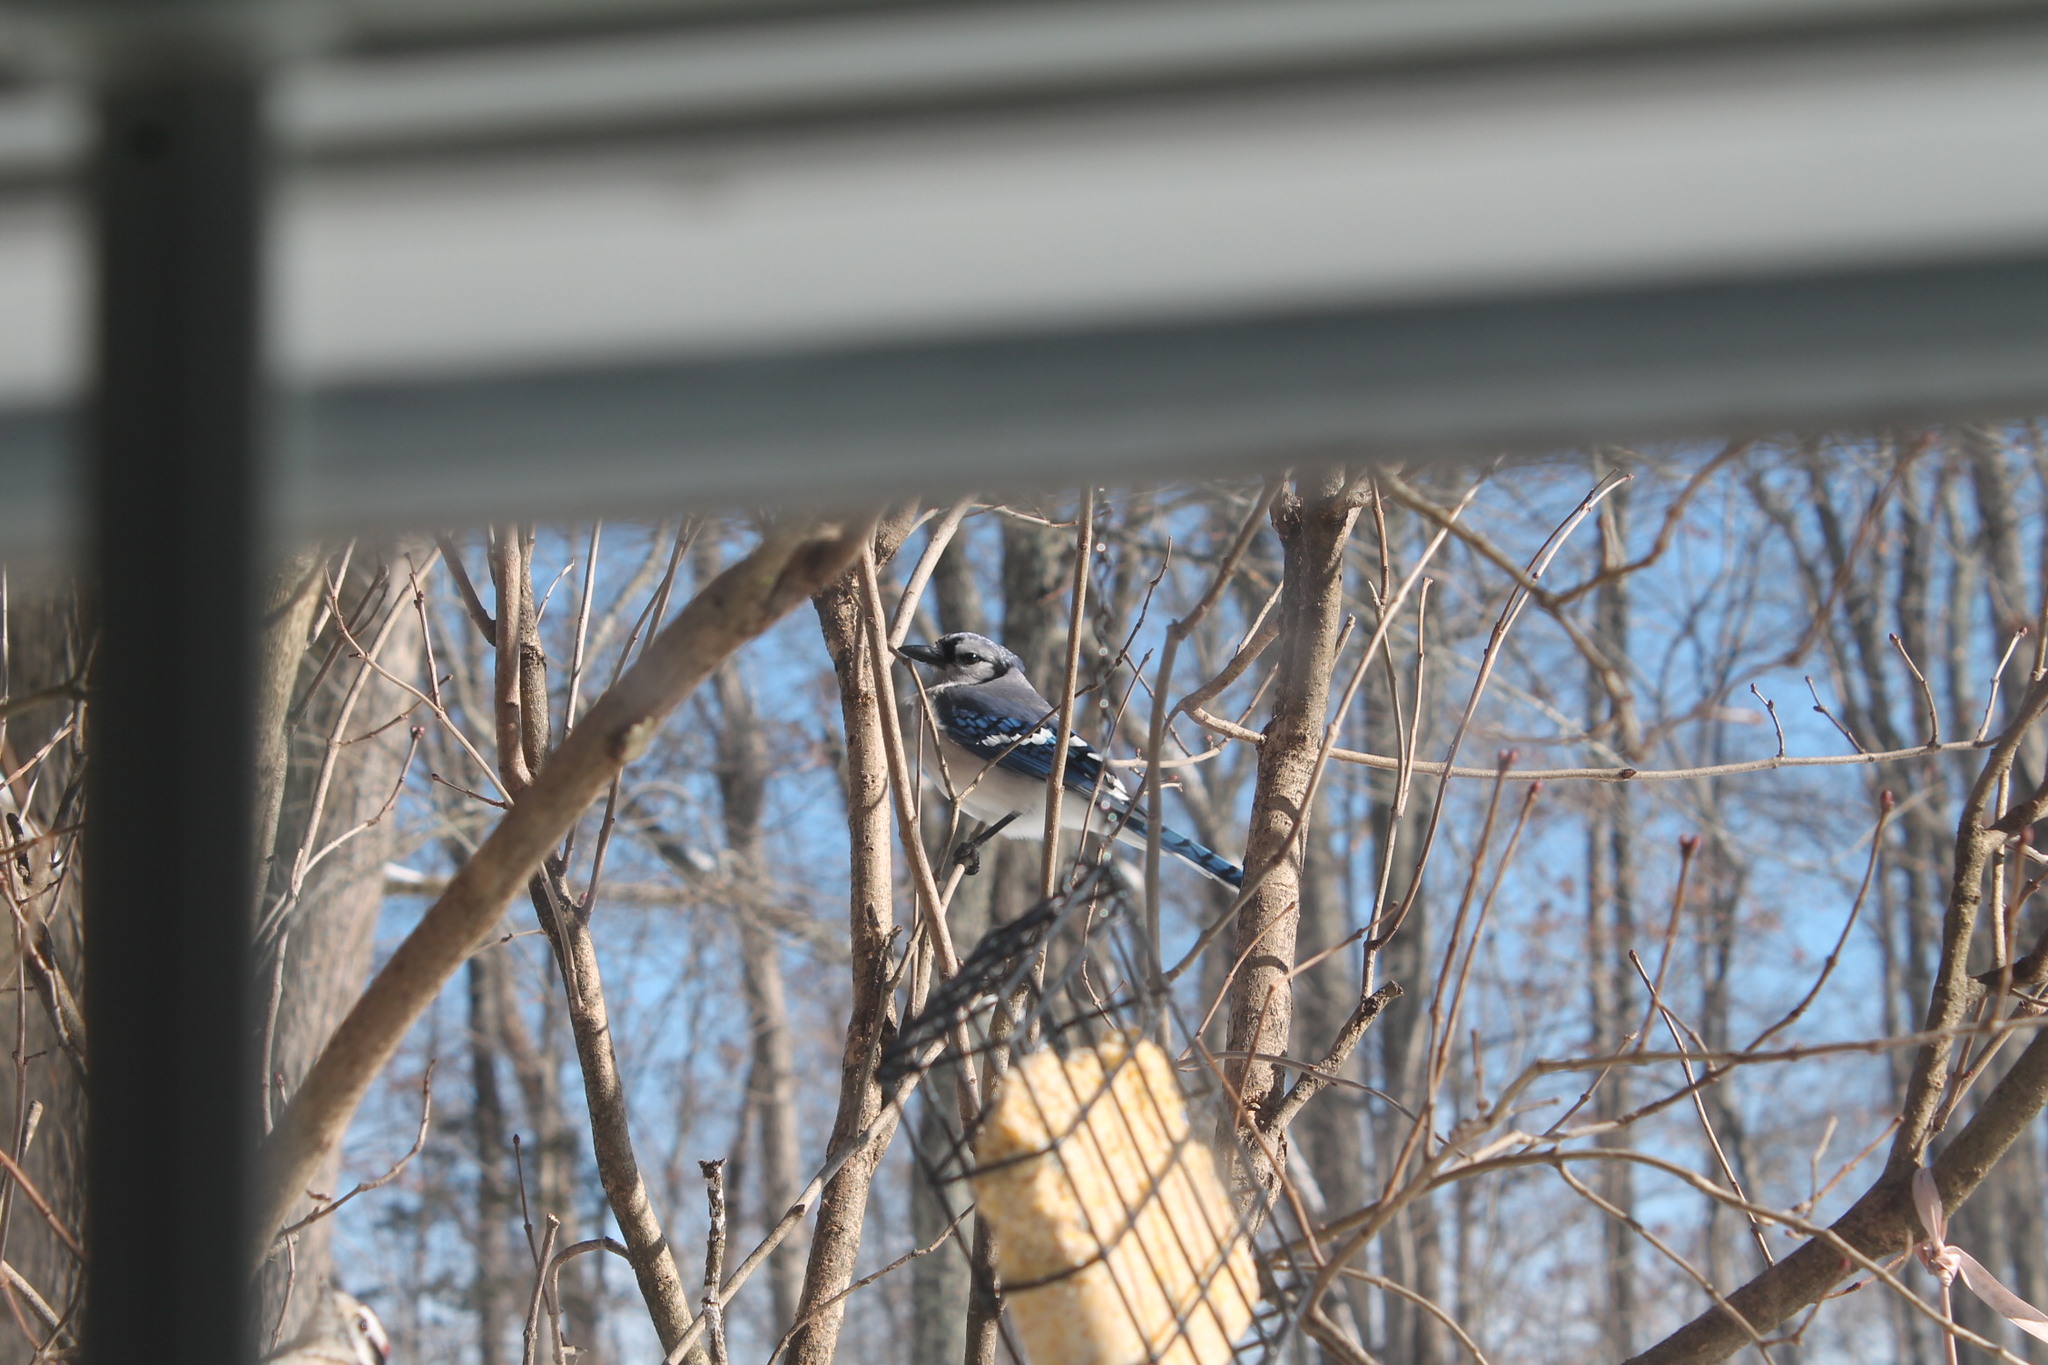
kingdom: Animalia
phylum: Chordata
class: Aves
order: Passeriformes
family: Corvidae
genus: Cyanocitta
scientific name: Cyanocitta cristata
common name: Blue jay
